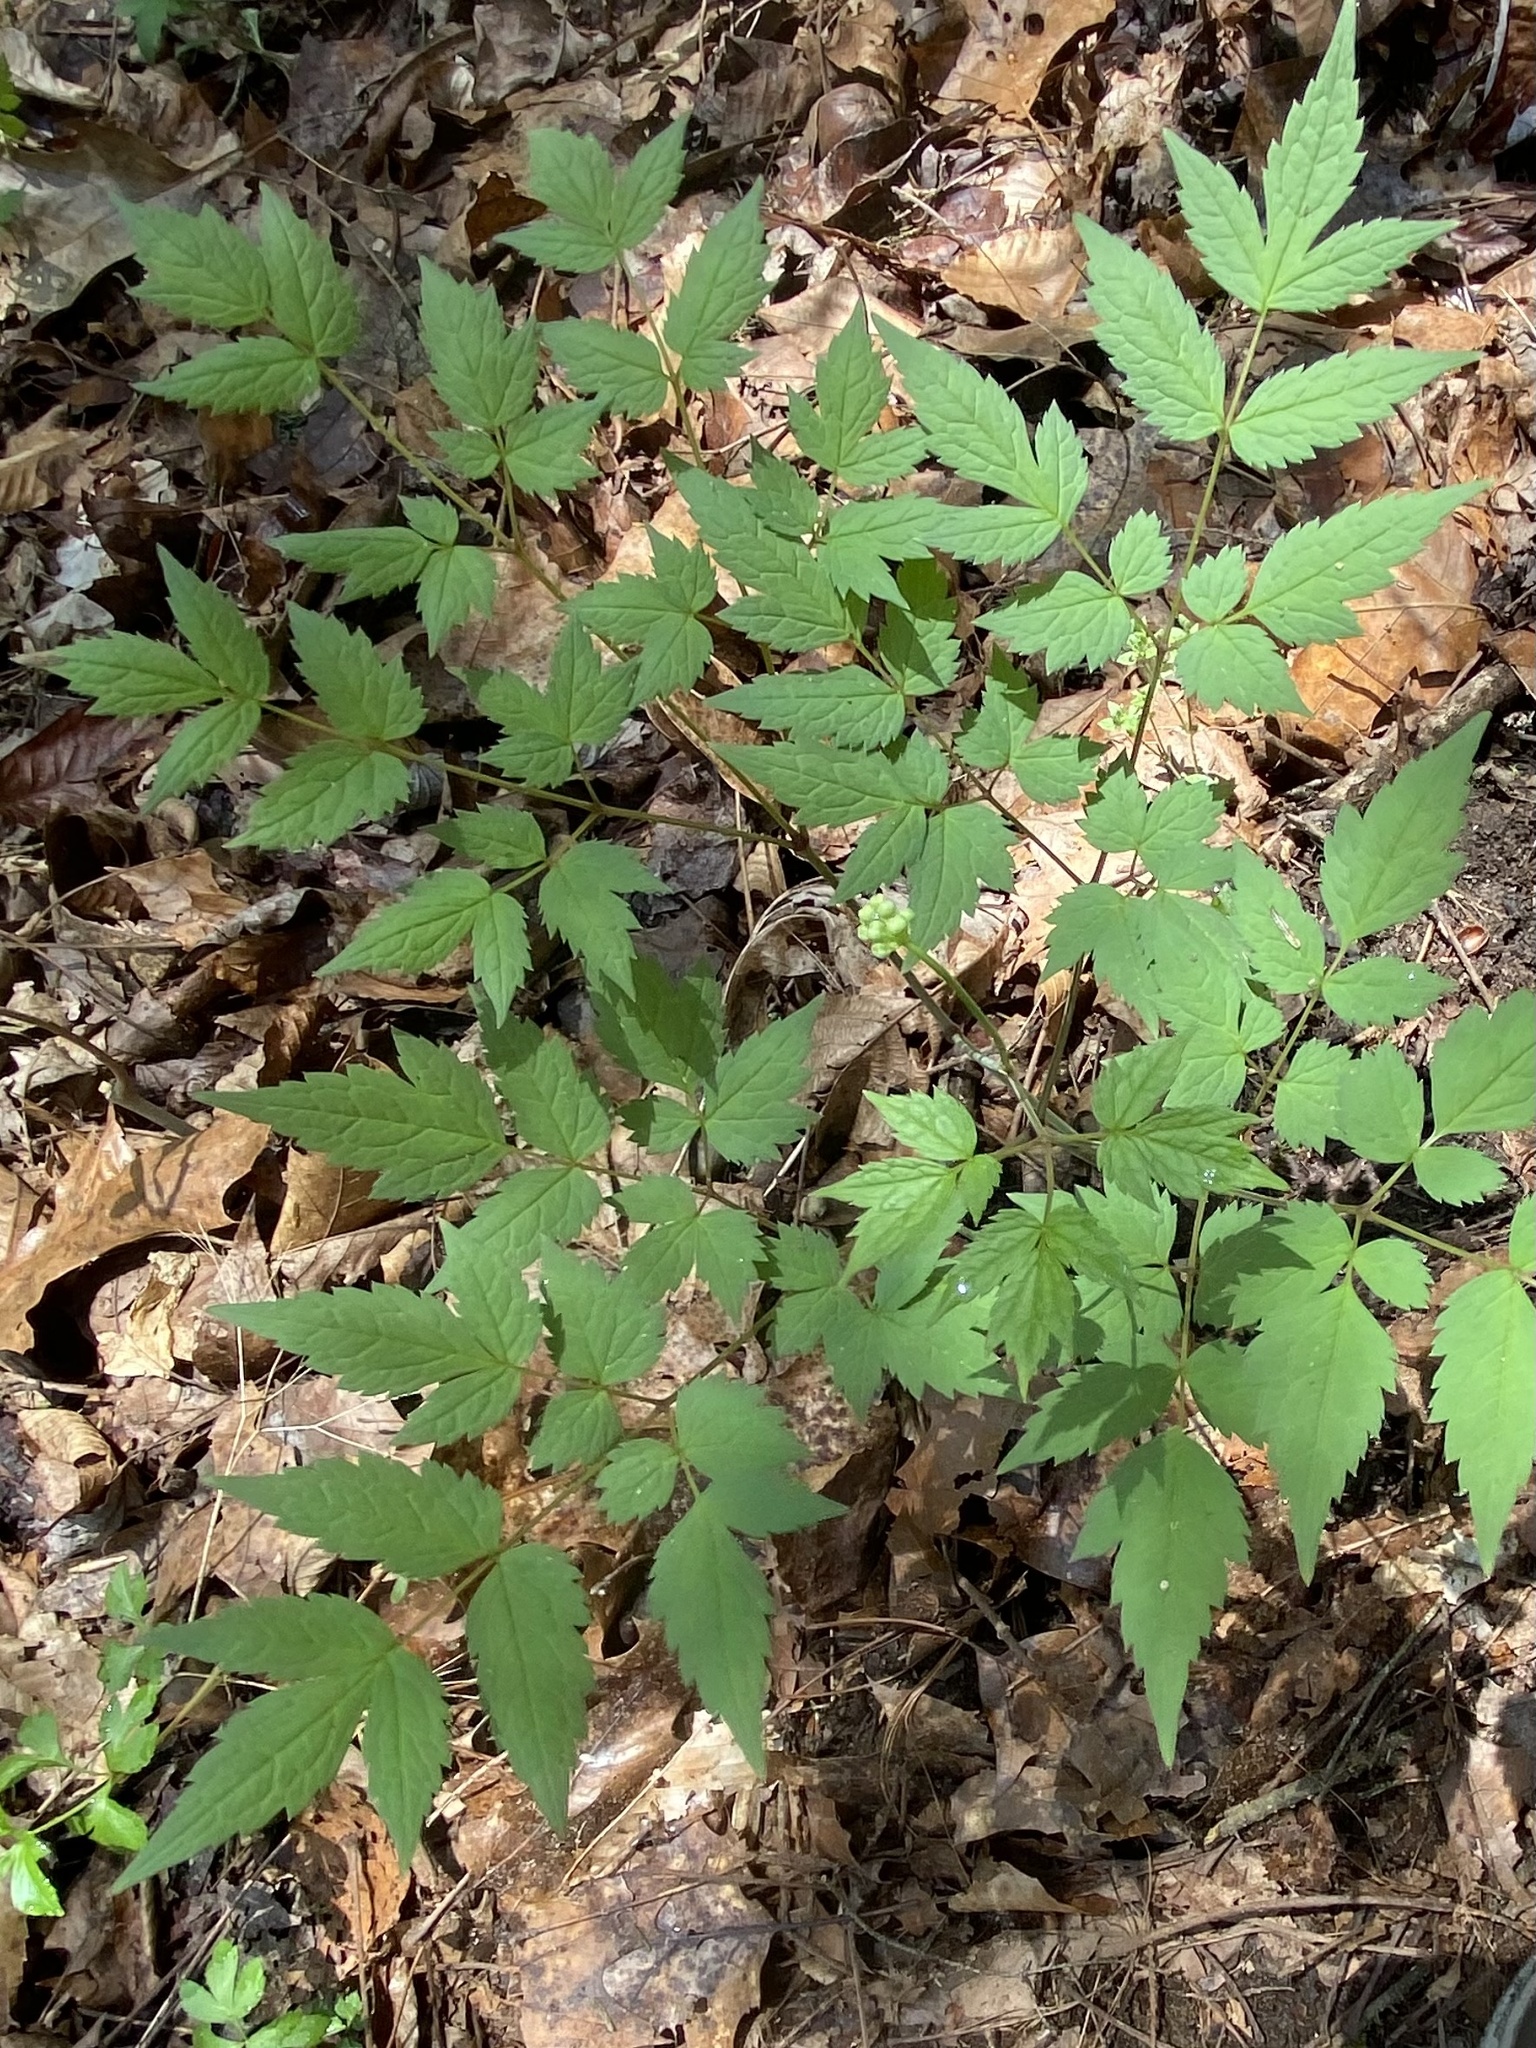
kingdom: Plantae
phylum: Tracheophyta
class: Magnoliopsida
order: Ranunculales
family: Ranunculaceae
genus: Actaea
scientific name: Actaea pachypoda
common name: Doll's-eyes
